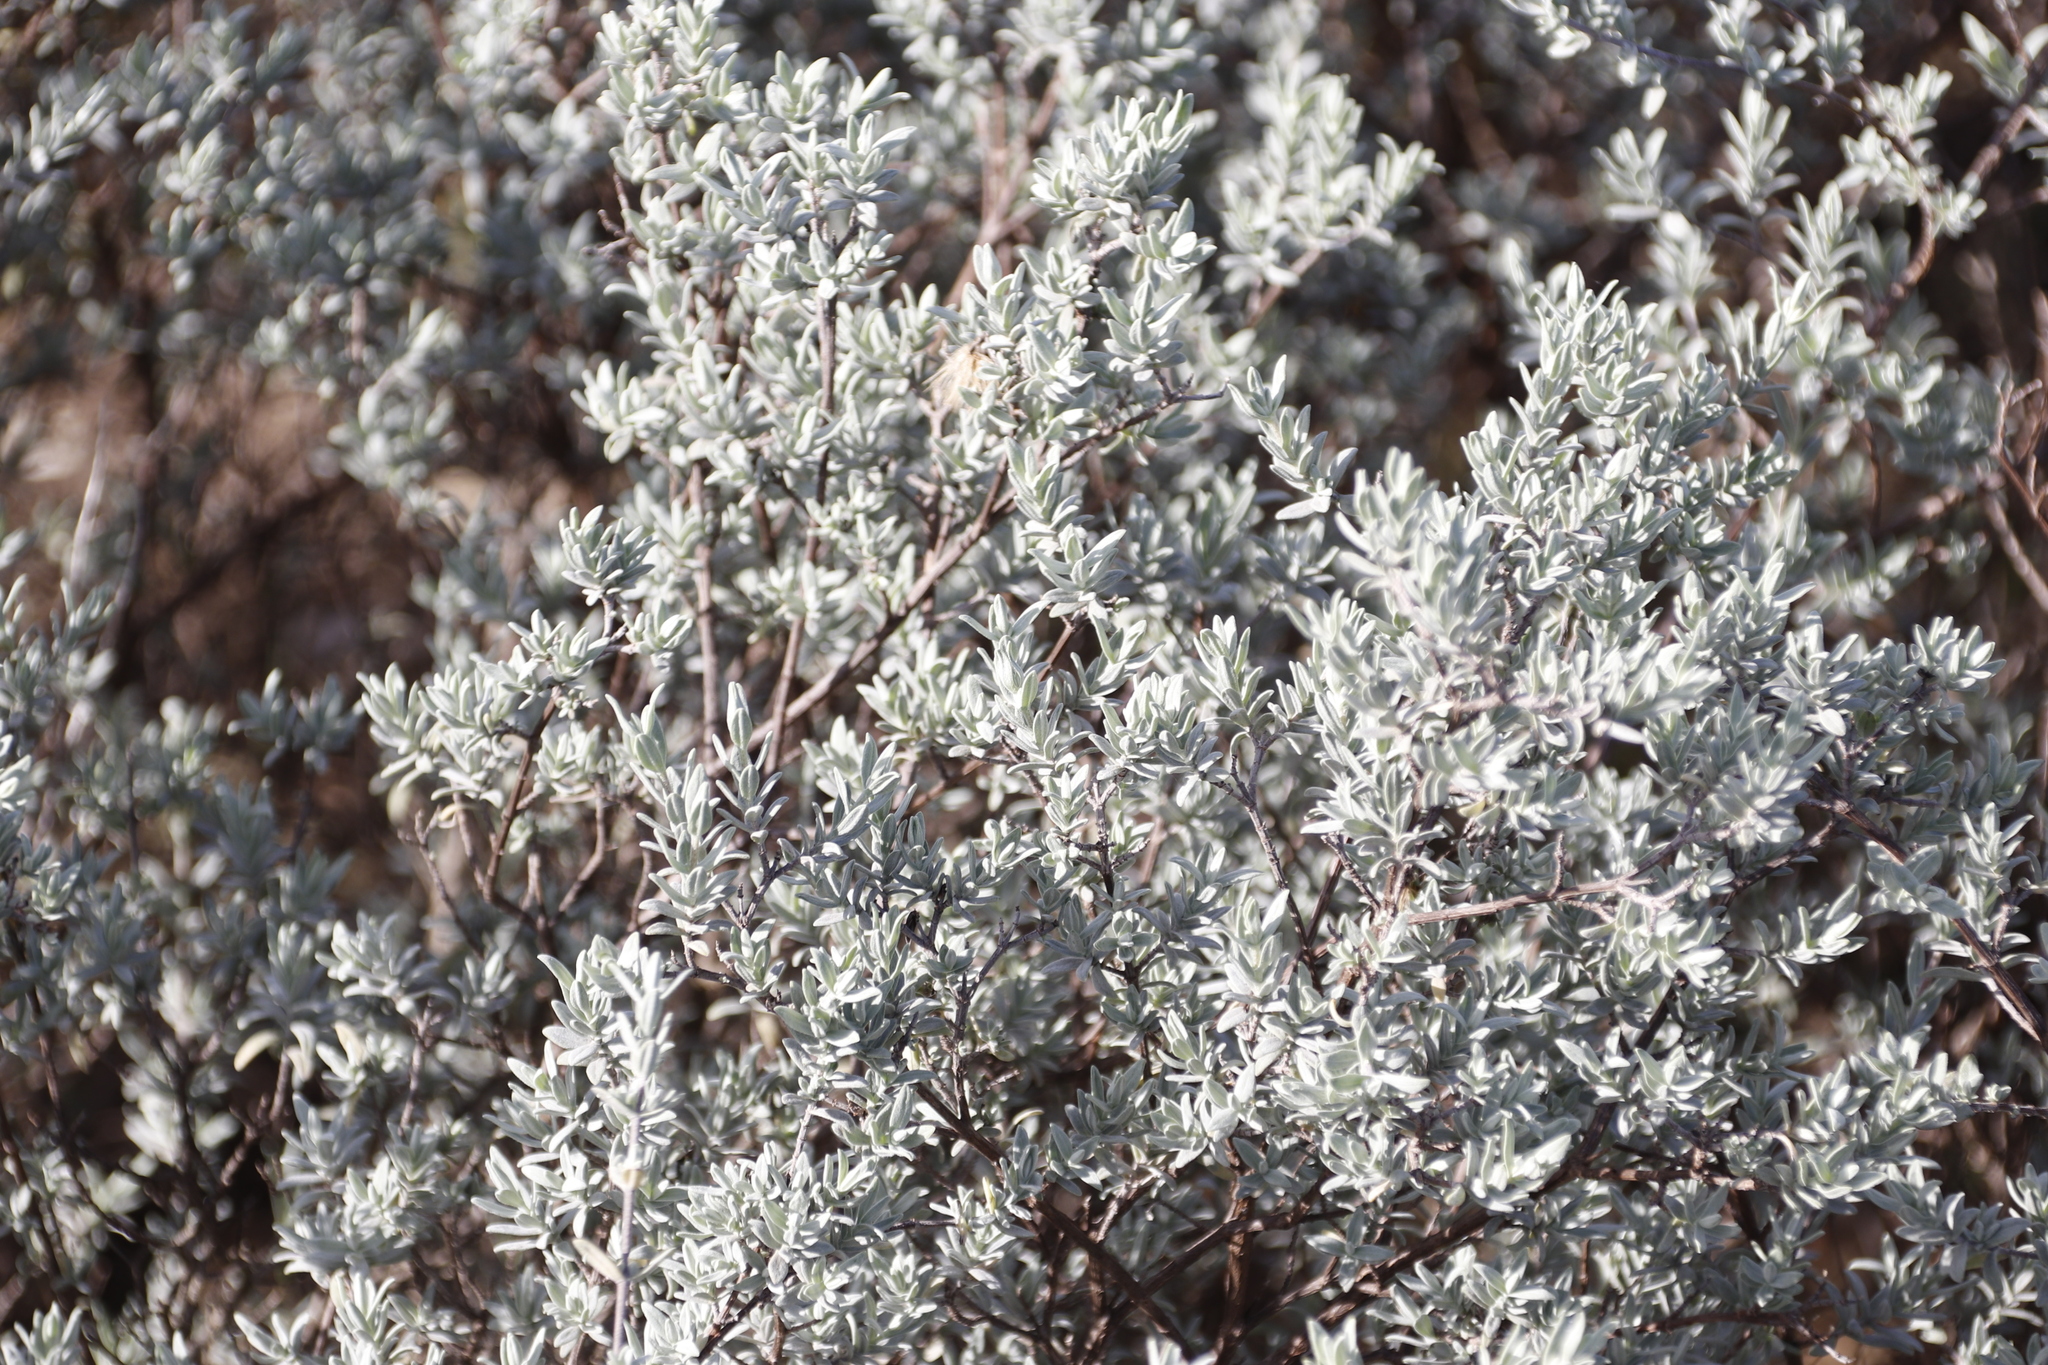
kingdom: Plantae
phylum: Tracheophyta
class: Magnoliopsida
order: Asterales
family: Asteraceae
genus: Pteronia
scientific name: Pteronia incana
